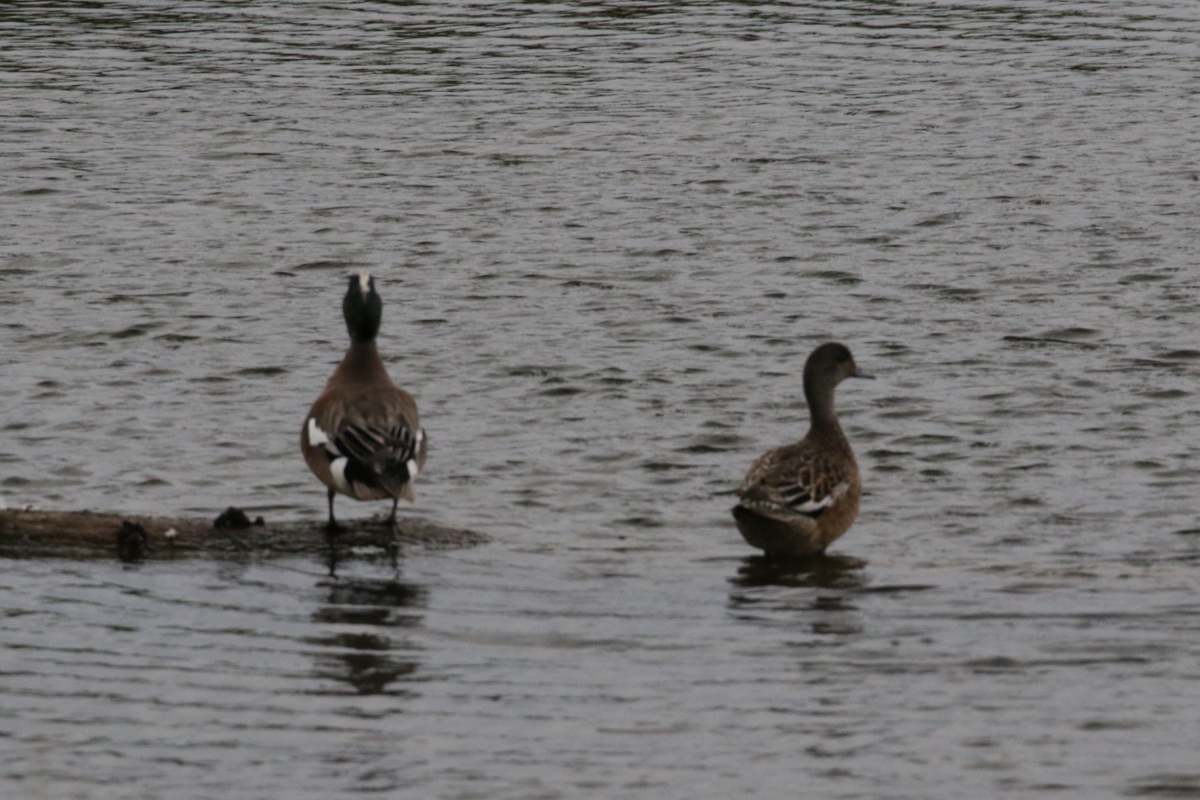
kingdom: Animalia
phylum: Chordata
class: Aves
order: Anseriformes
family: Anatidae
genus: Mareca
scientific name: Mareca americana
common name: American wigeon
